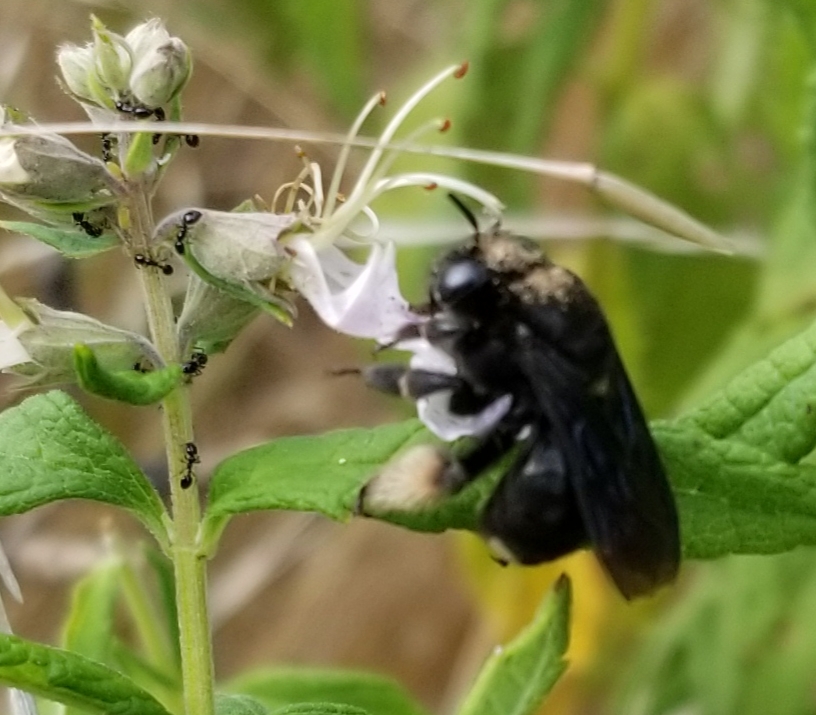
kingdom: Animalia
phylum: Arthropoda
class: Insecta
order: Hymenoptera
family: Apidae
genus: Melissodes
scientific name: Melissodes bimaculatus
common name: Two-spotted long-horned bee
